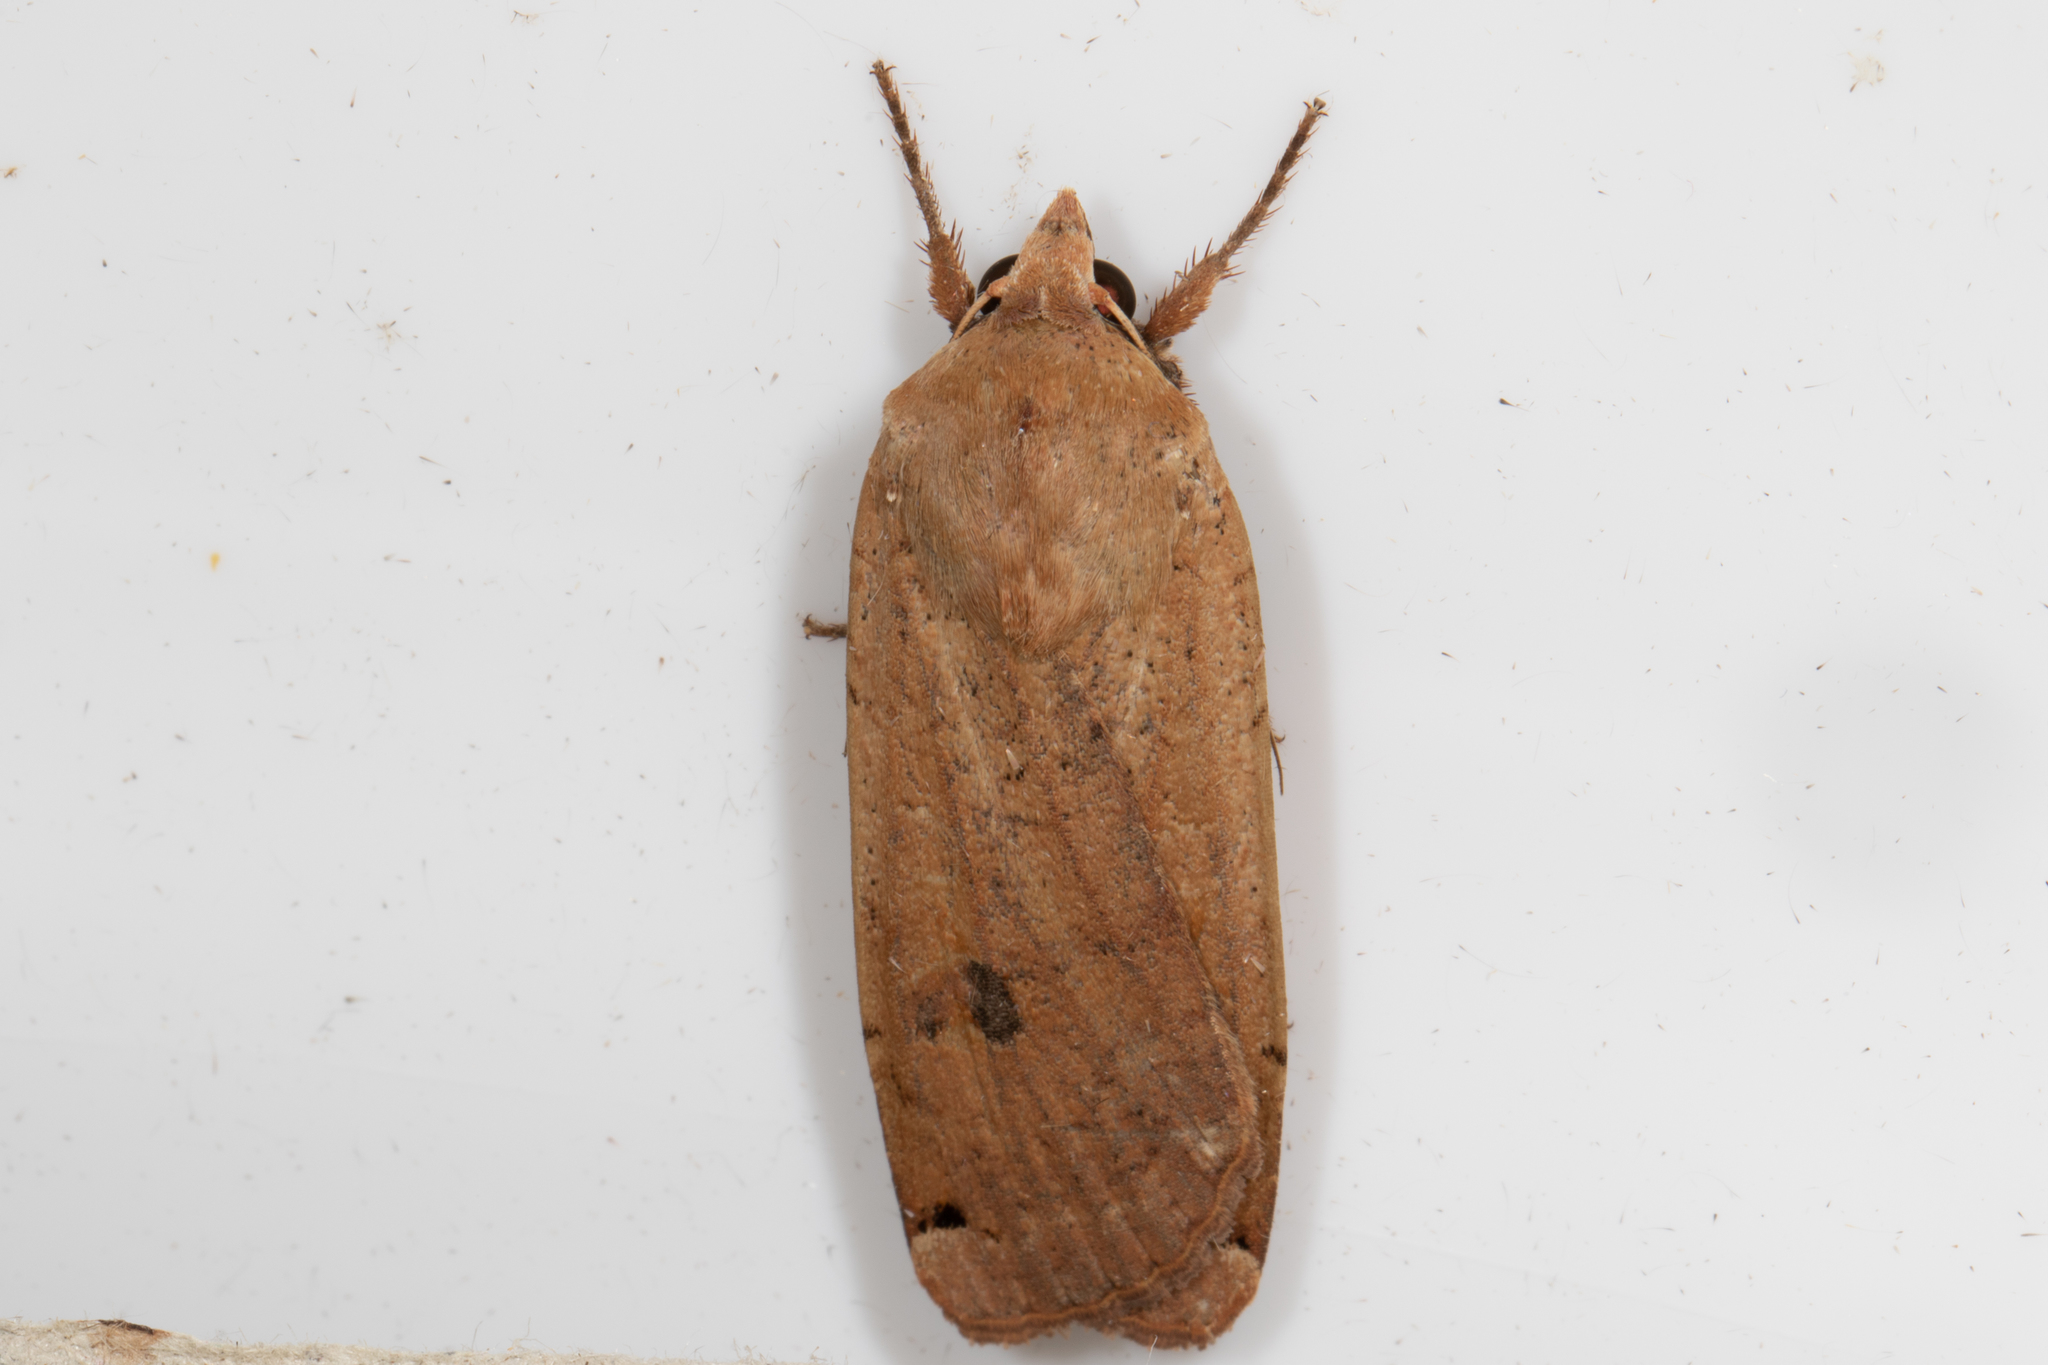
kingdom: Animalia
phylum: Arthropoda
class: Insecta
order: Lepidoptera
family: Noctuidae
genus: Noctua
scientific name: Noctua pronuba
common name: Large yellow underwing
